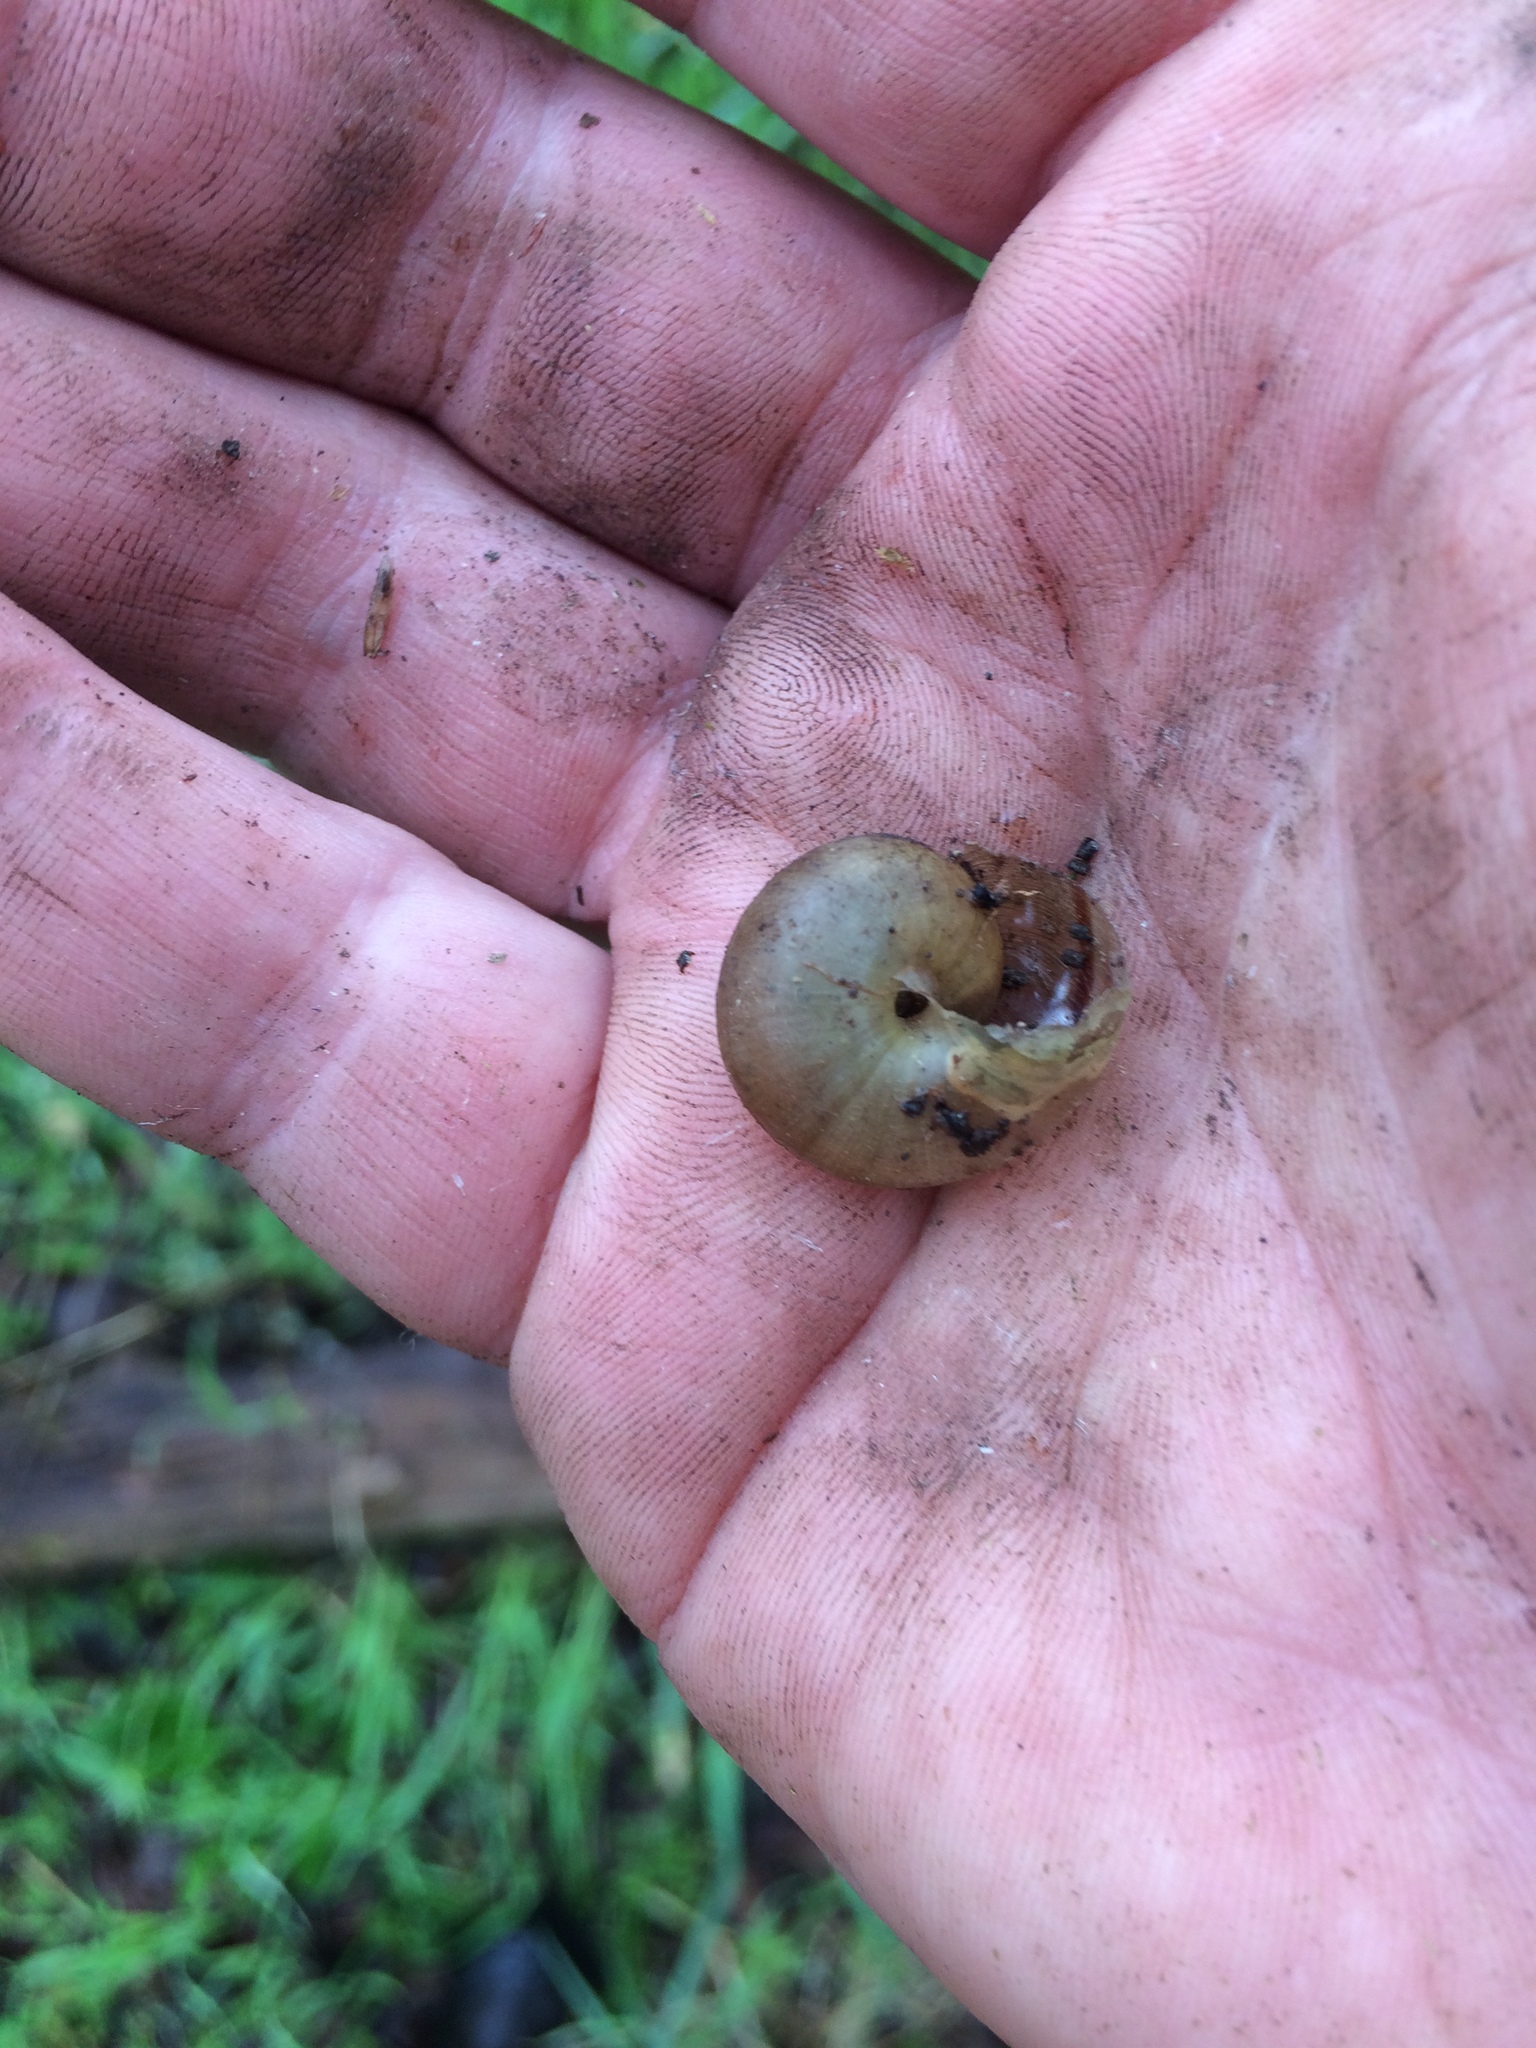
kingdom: Animalia
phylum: Mollusca
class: Gastropoda
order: Stylommatophora
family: Xanthonychidae
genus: Helminthoglypta
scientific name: Helminthoglypta nickliniana
